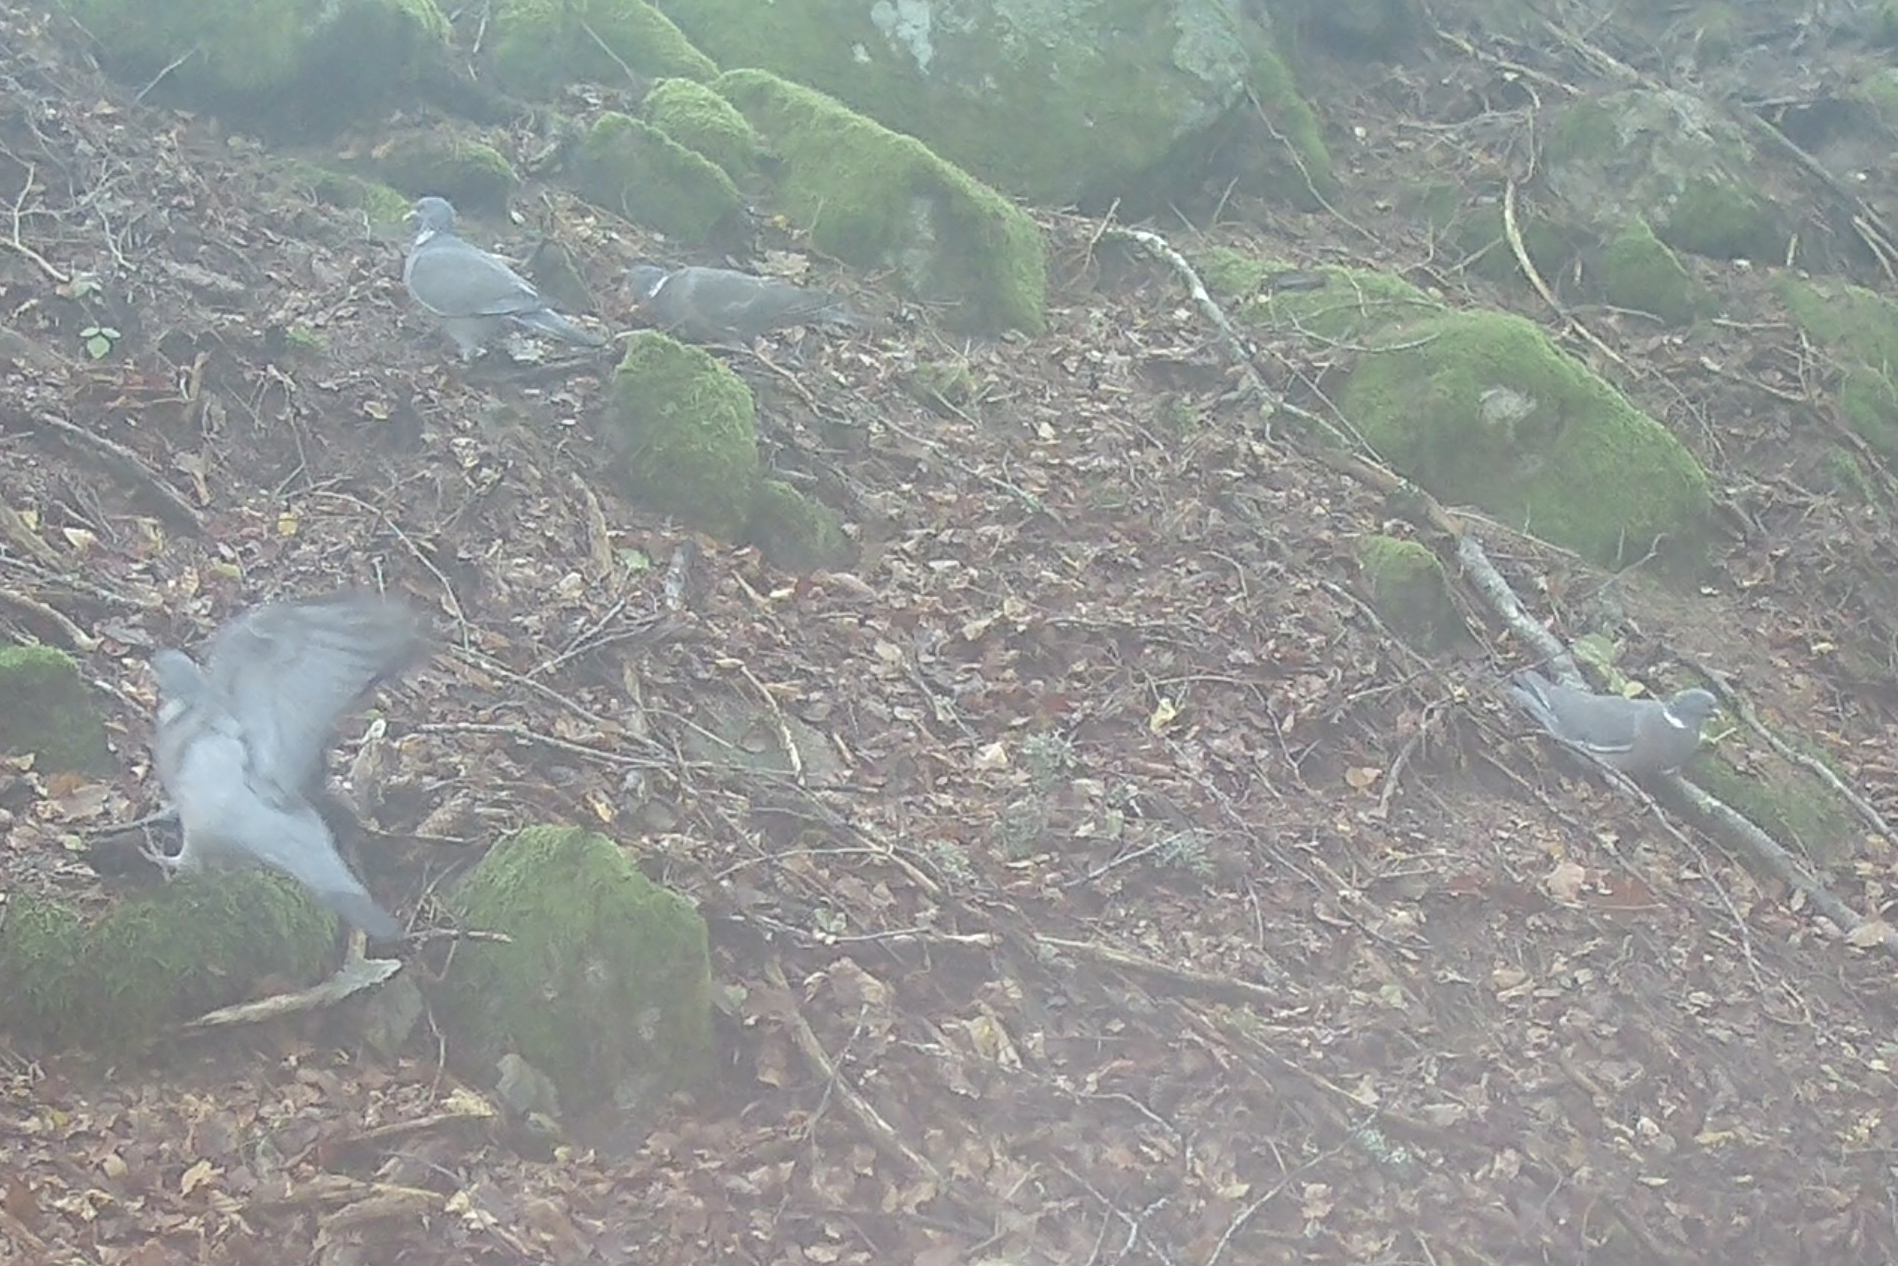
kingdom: Animalia
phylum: Chordata
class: Aves
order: Columbiformes
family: Columbidae
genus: Columba
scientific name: Columba palumbus
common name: Common wood pigeon
